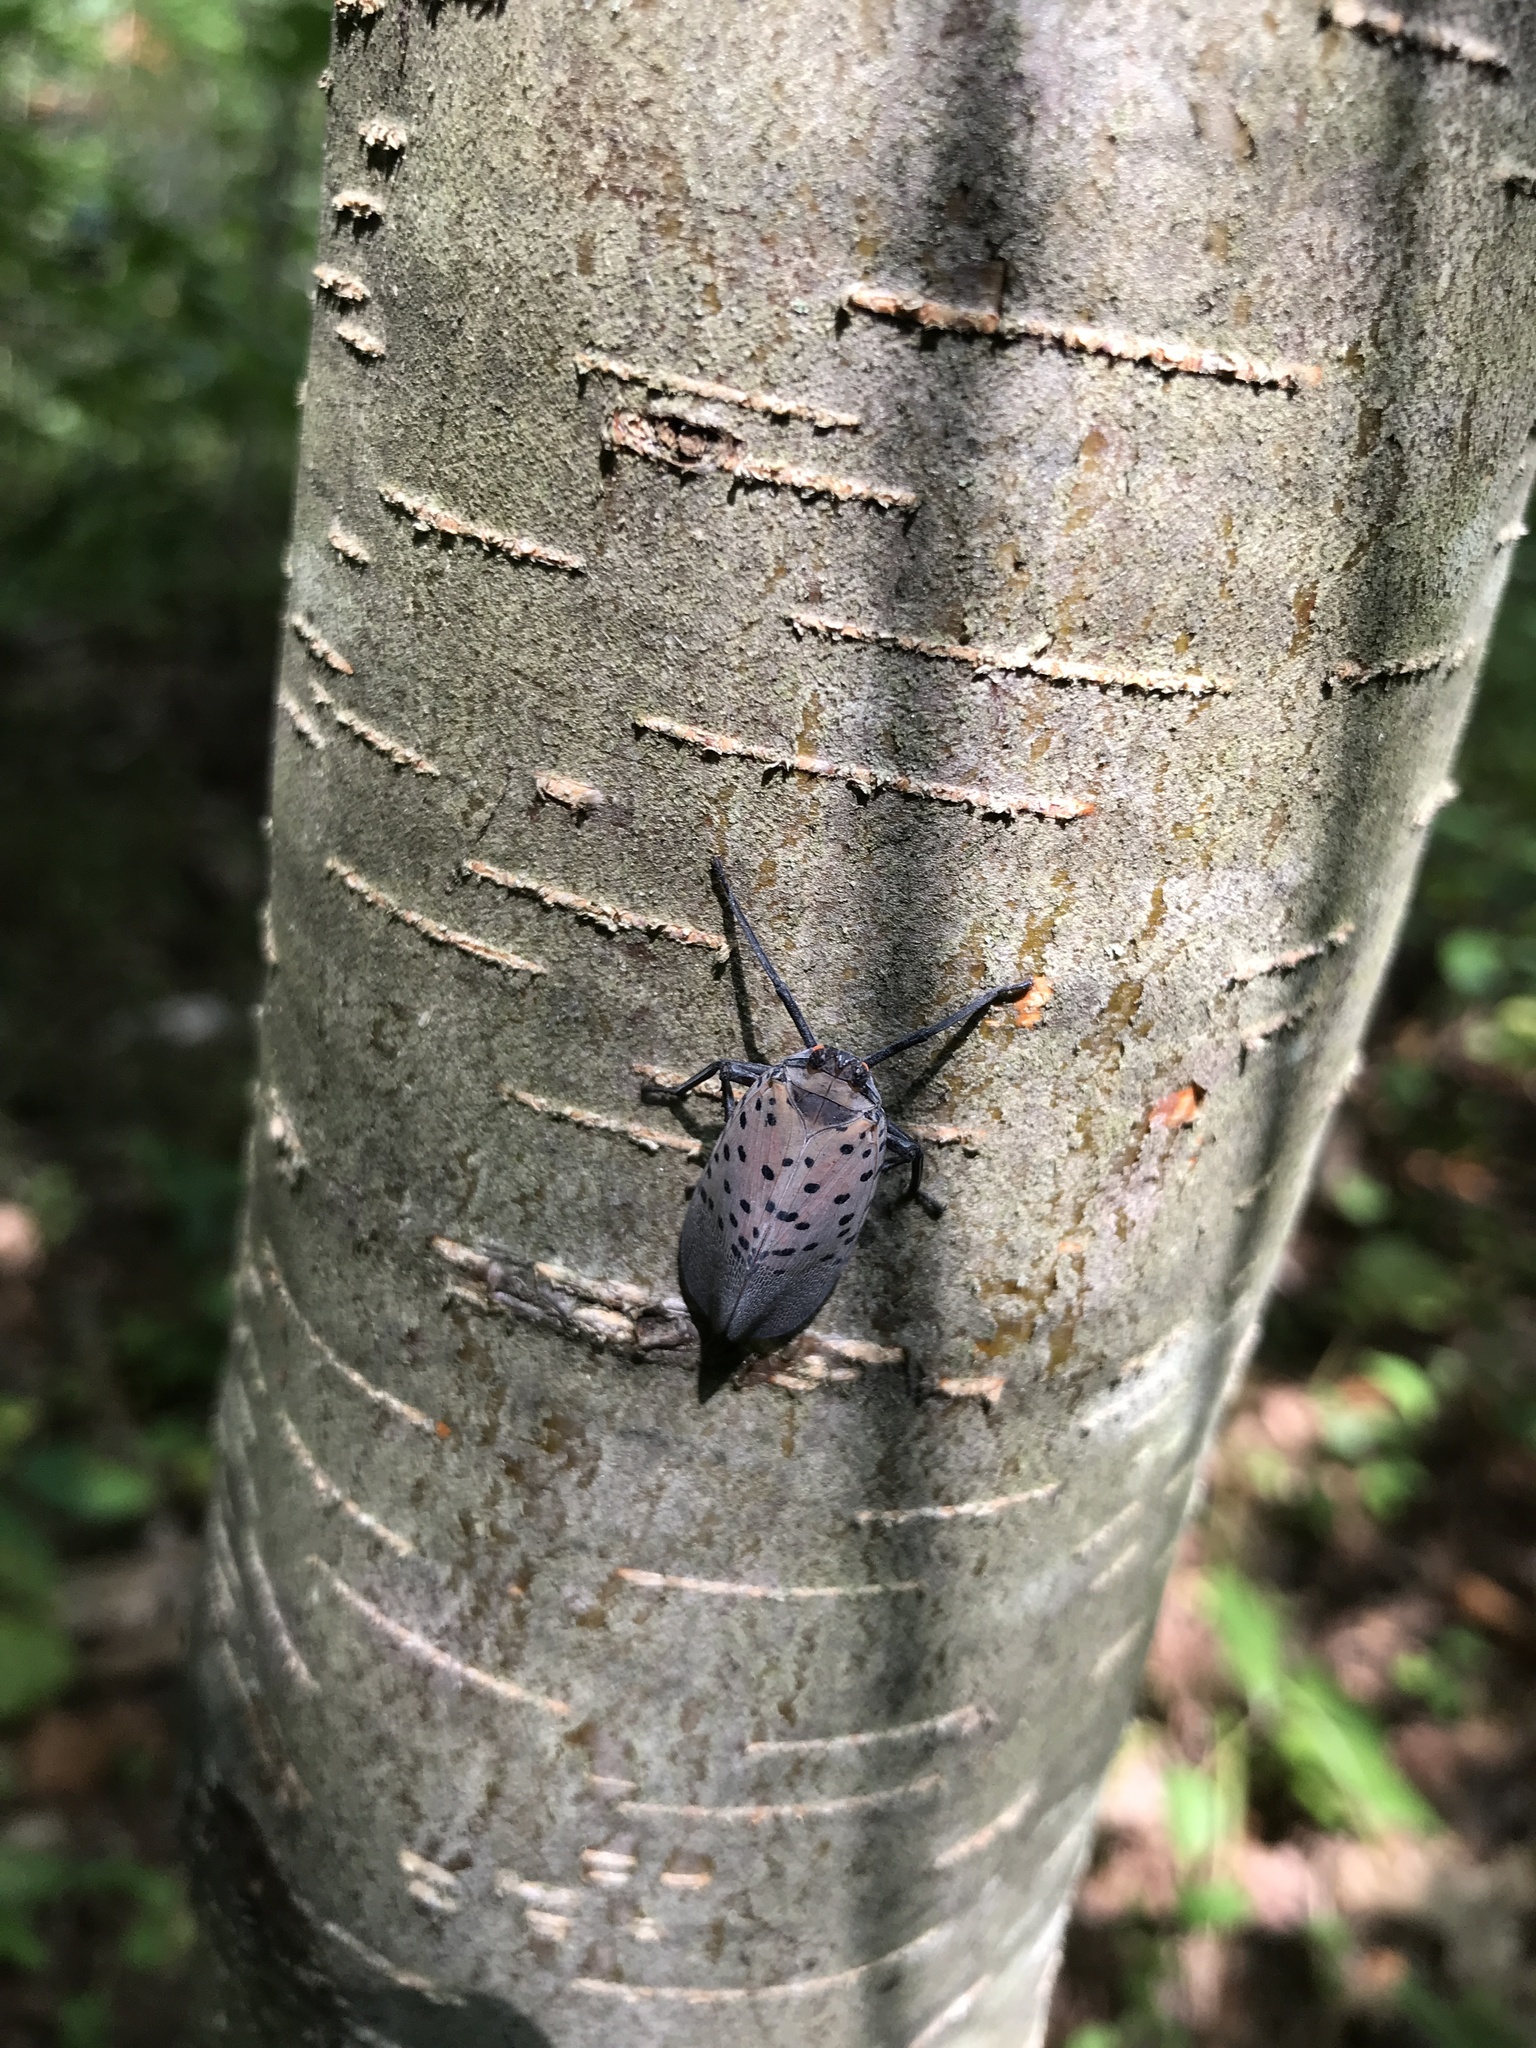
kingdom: Animalia
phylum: Arthropoda
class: Insecta
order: Hemiptera
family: Fulgoridae
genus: Lycorma
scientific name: Lycorma delicatula
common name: Spotted lanternfly
